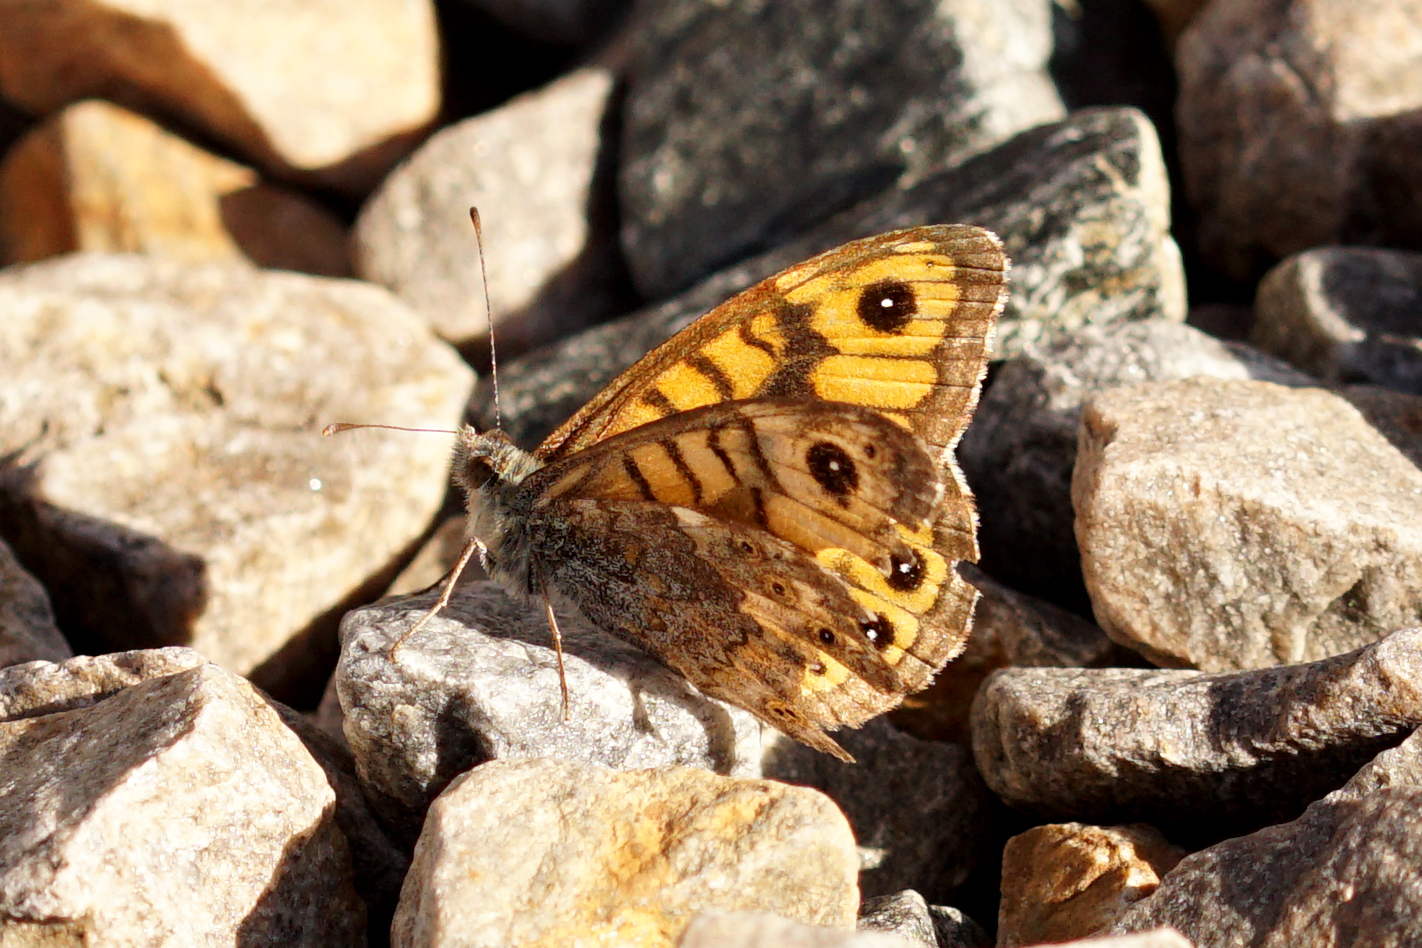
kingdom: Animalia
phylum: Arthropoda
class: Insecta
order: Lepidoptera
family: Nymphalidae
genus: Pararge
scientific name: Pararge Lasiommata megera
